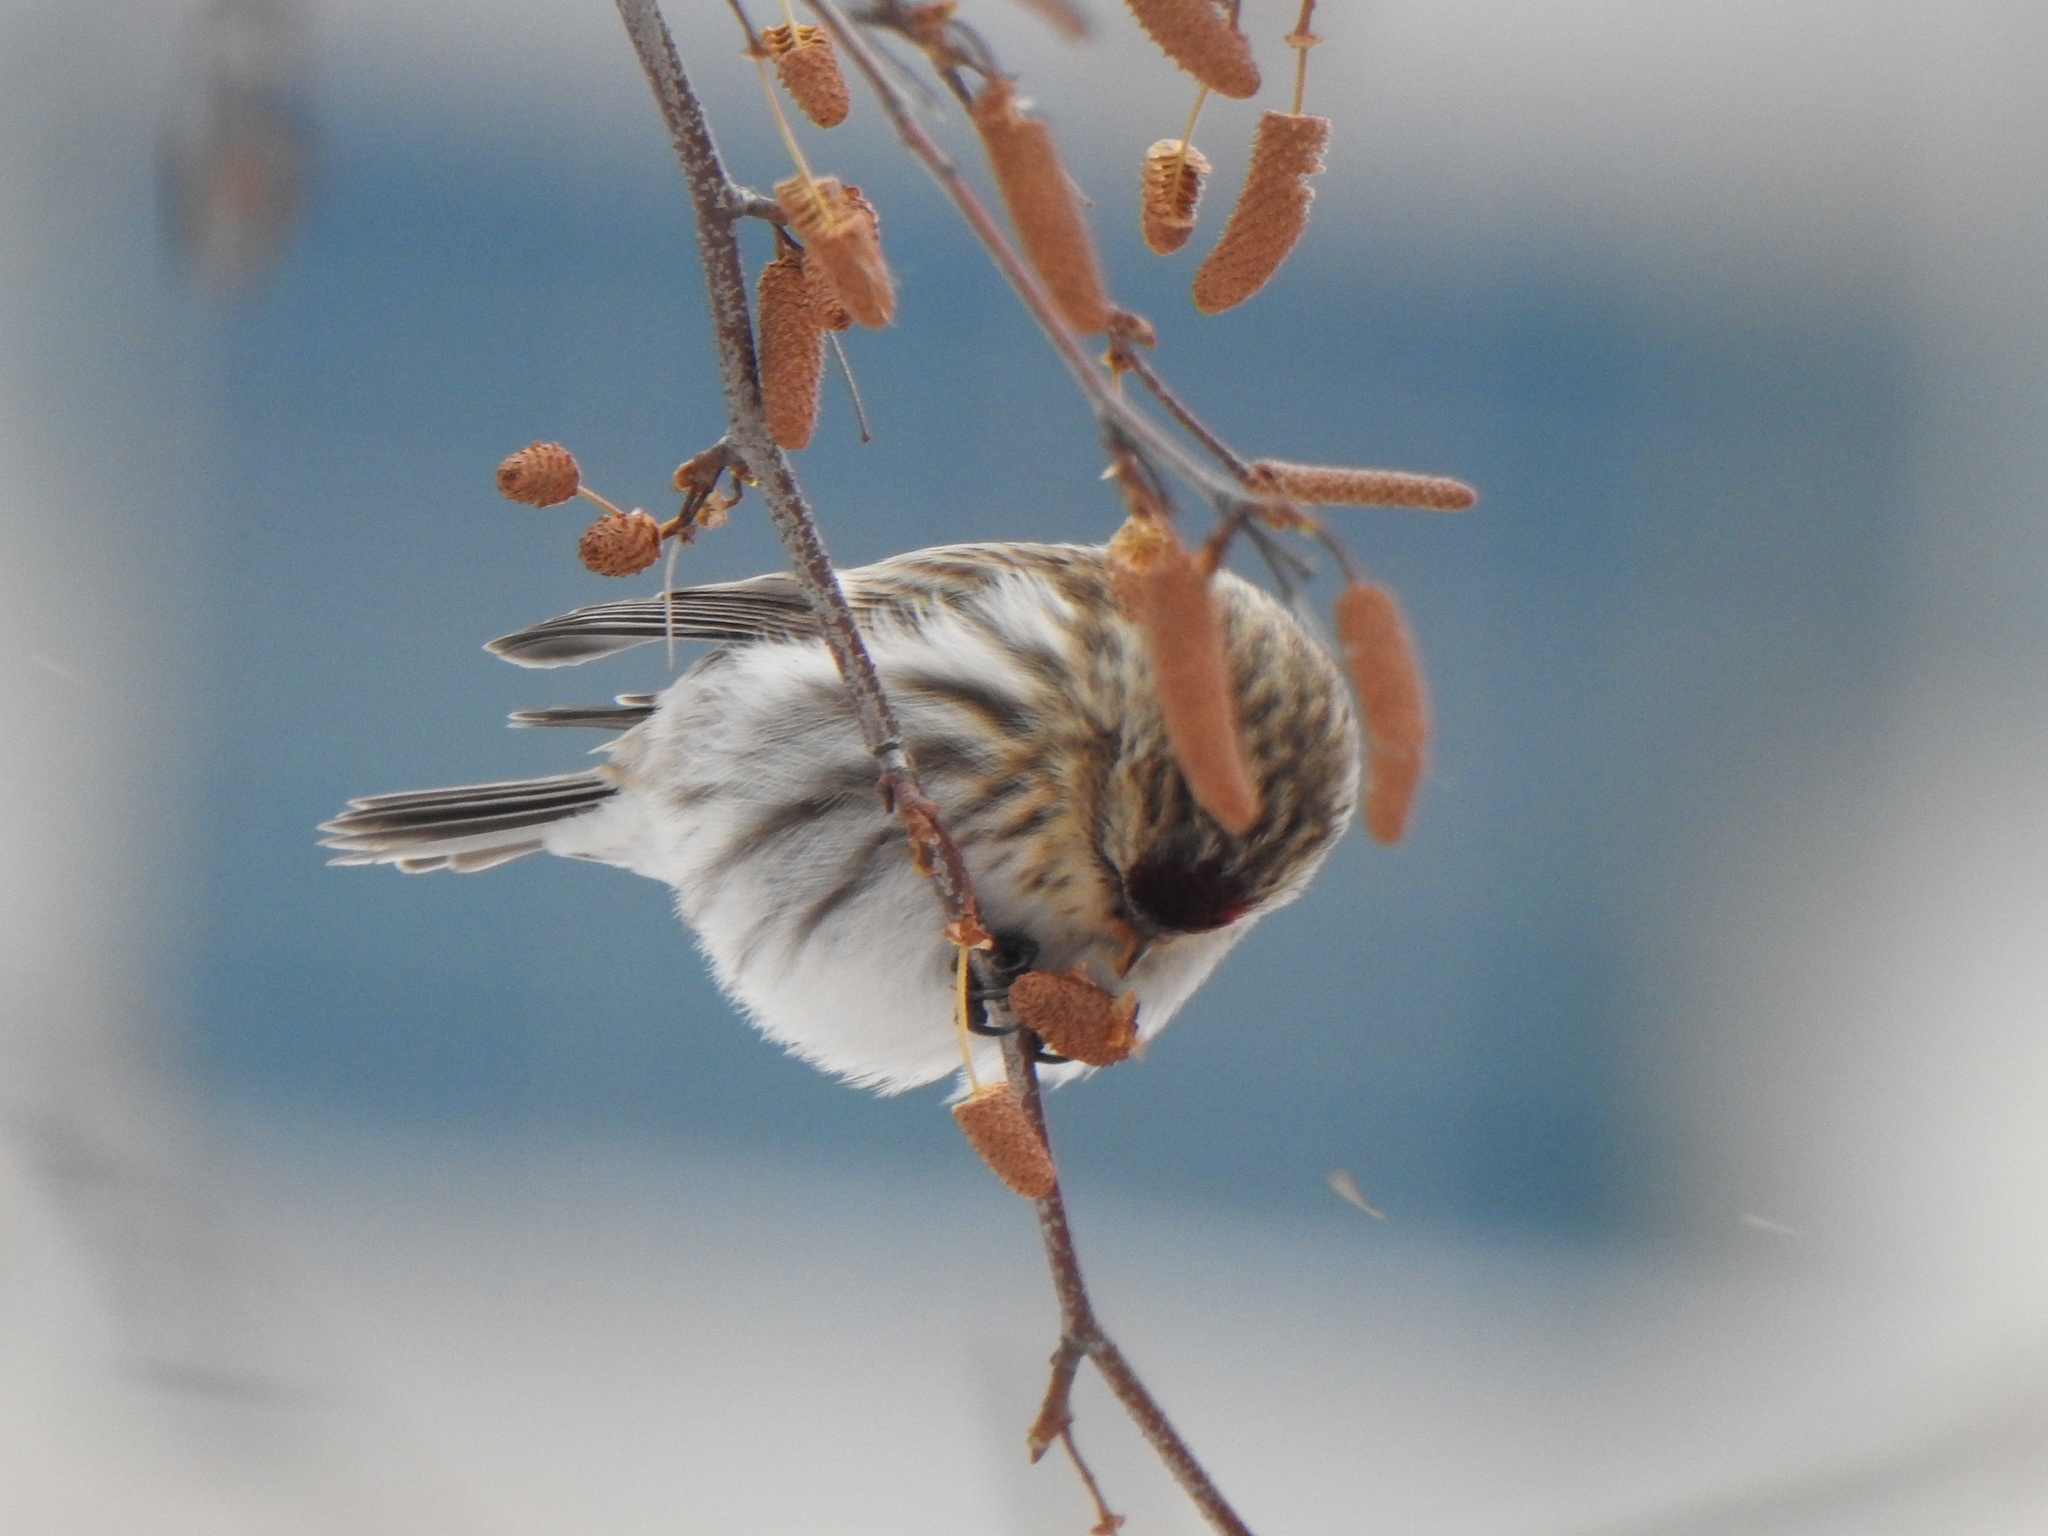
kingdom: Animalia
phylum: Chordata
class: Aves
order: Passeriformes
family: Fringillidae
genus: Acanthis
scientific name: Acanthis flammea
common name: Common redpoll
